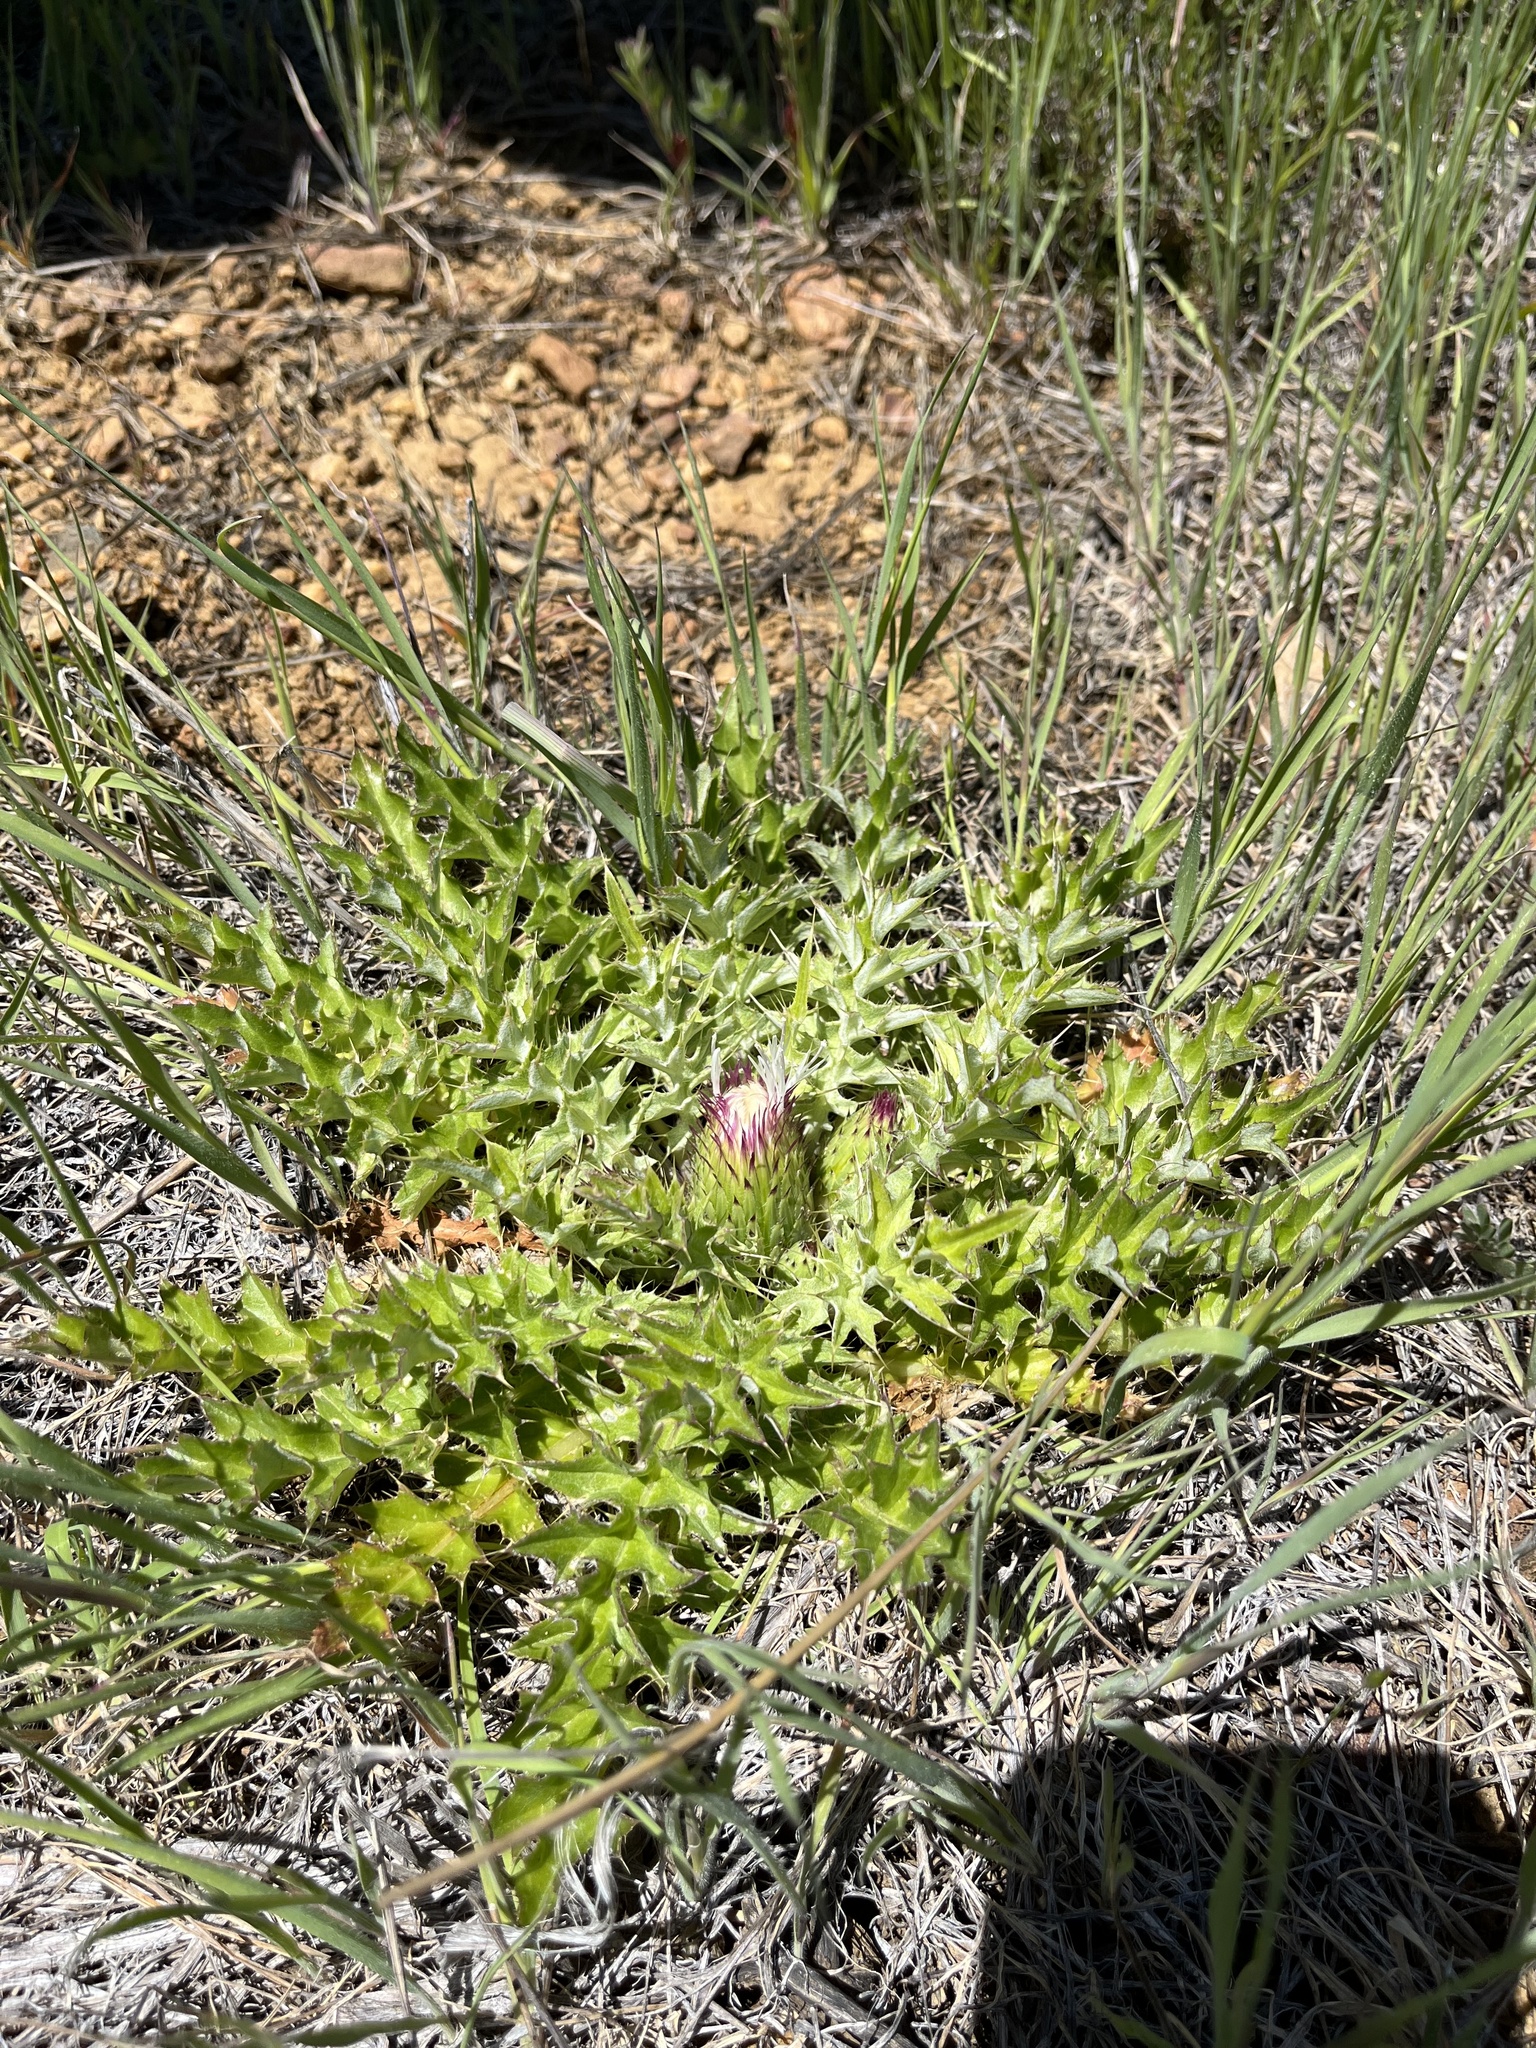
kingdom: Plantae
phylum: Tracheophyta
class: Magnoliopsida
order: Asterales
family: Asteraceae
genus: Cirsium
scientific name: Cirsium tioganum
